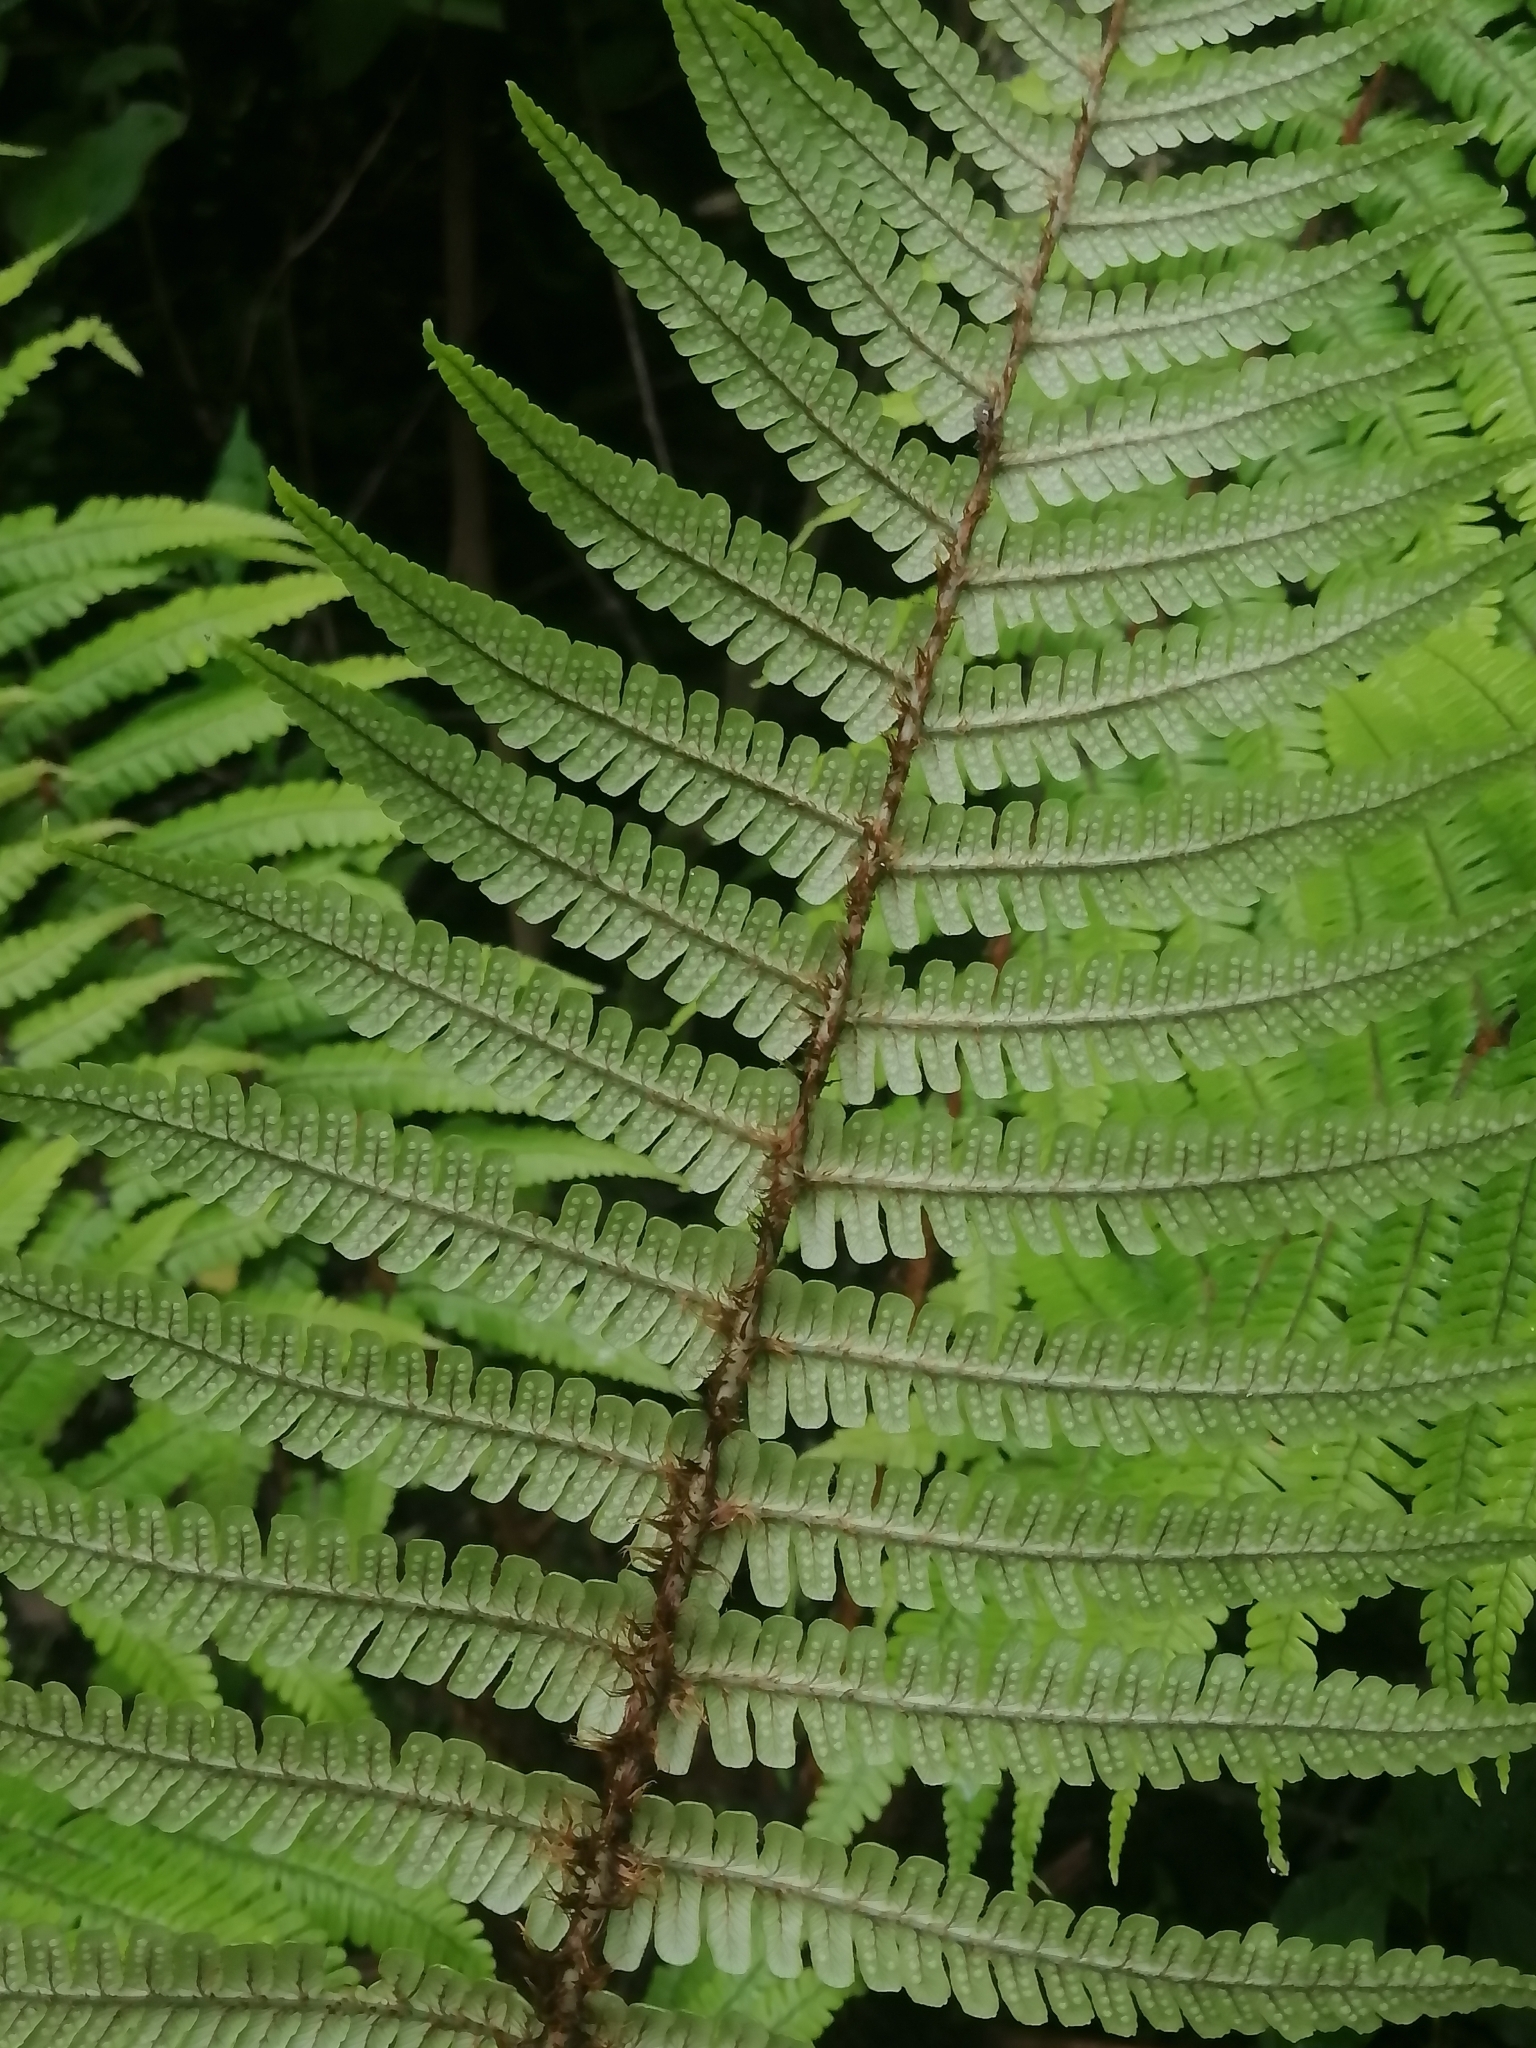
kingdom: Plantae
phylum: Tracheophyta
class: Polypodiopsida
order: Polypodiales
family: Dryopteridaceae
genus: Dryopteris
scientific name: Dryopteris wallichiana
